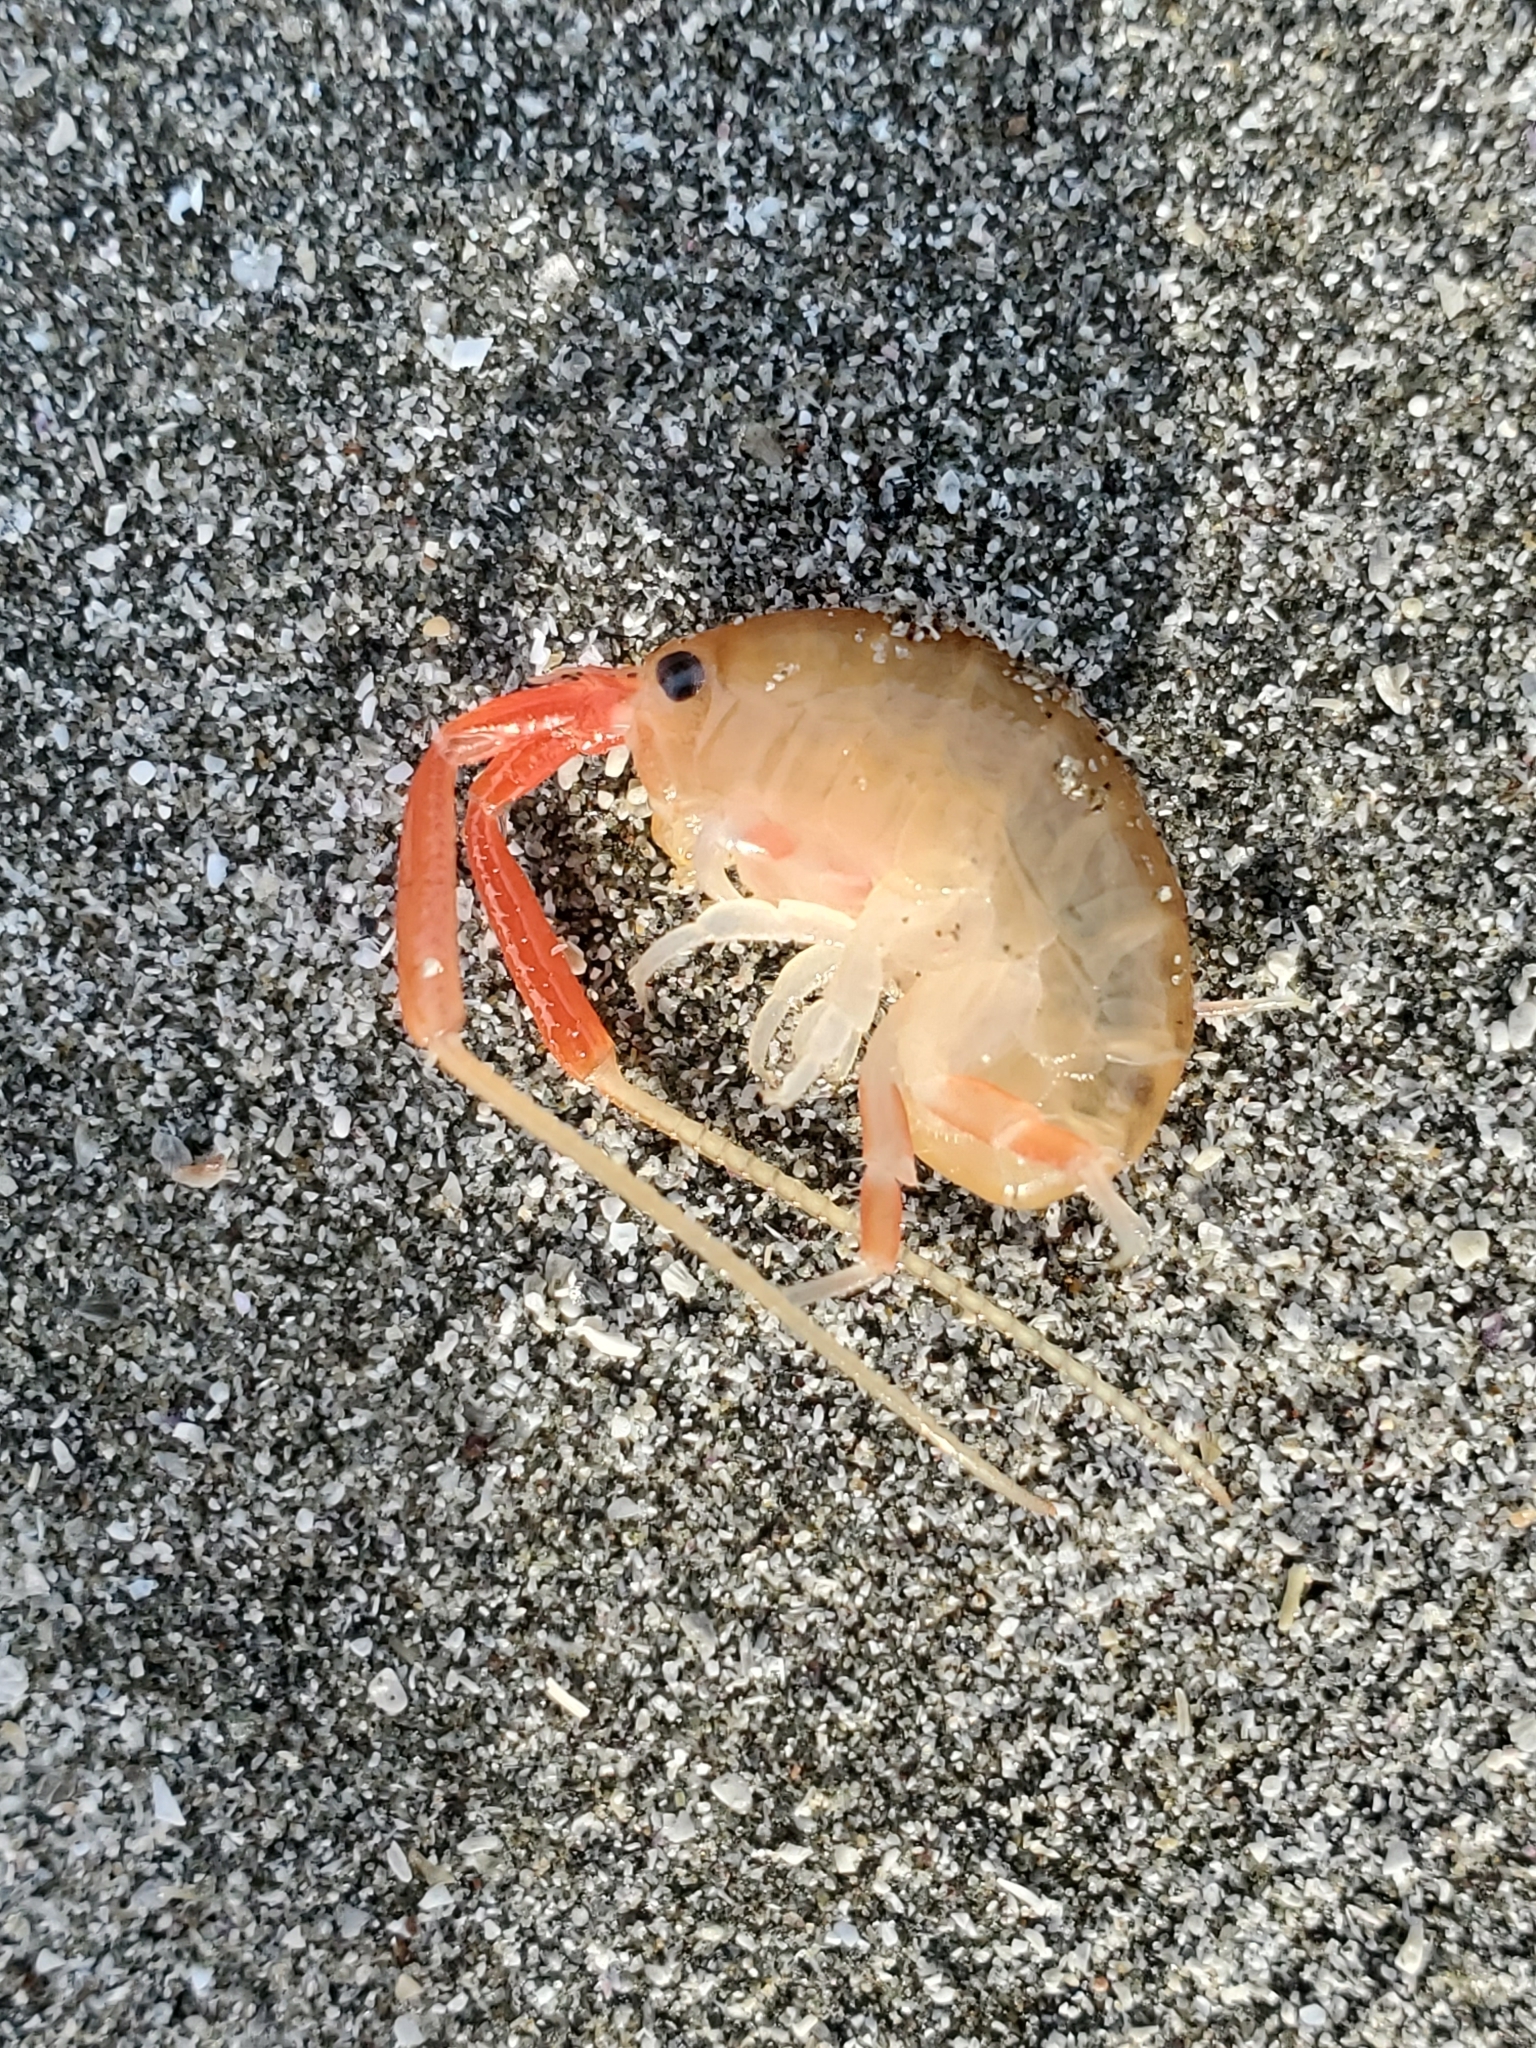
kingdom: Animalia
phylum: Arthropoda
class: Malacostraca
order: Amphipoda
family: Talitridae
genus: Megalorchestia
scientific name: Megalorchestia californiana
